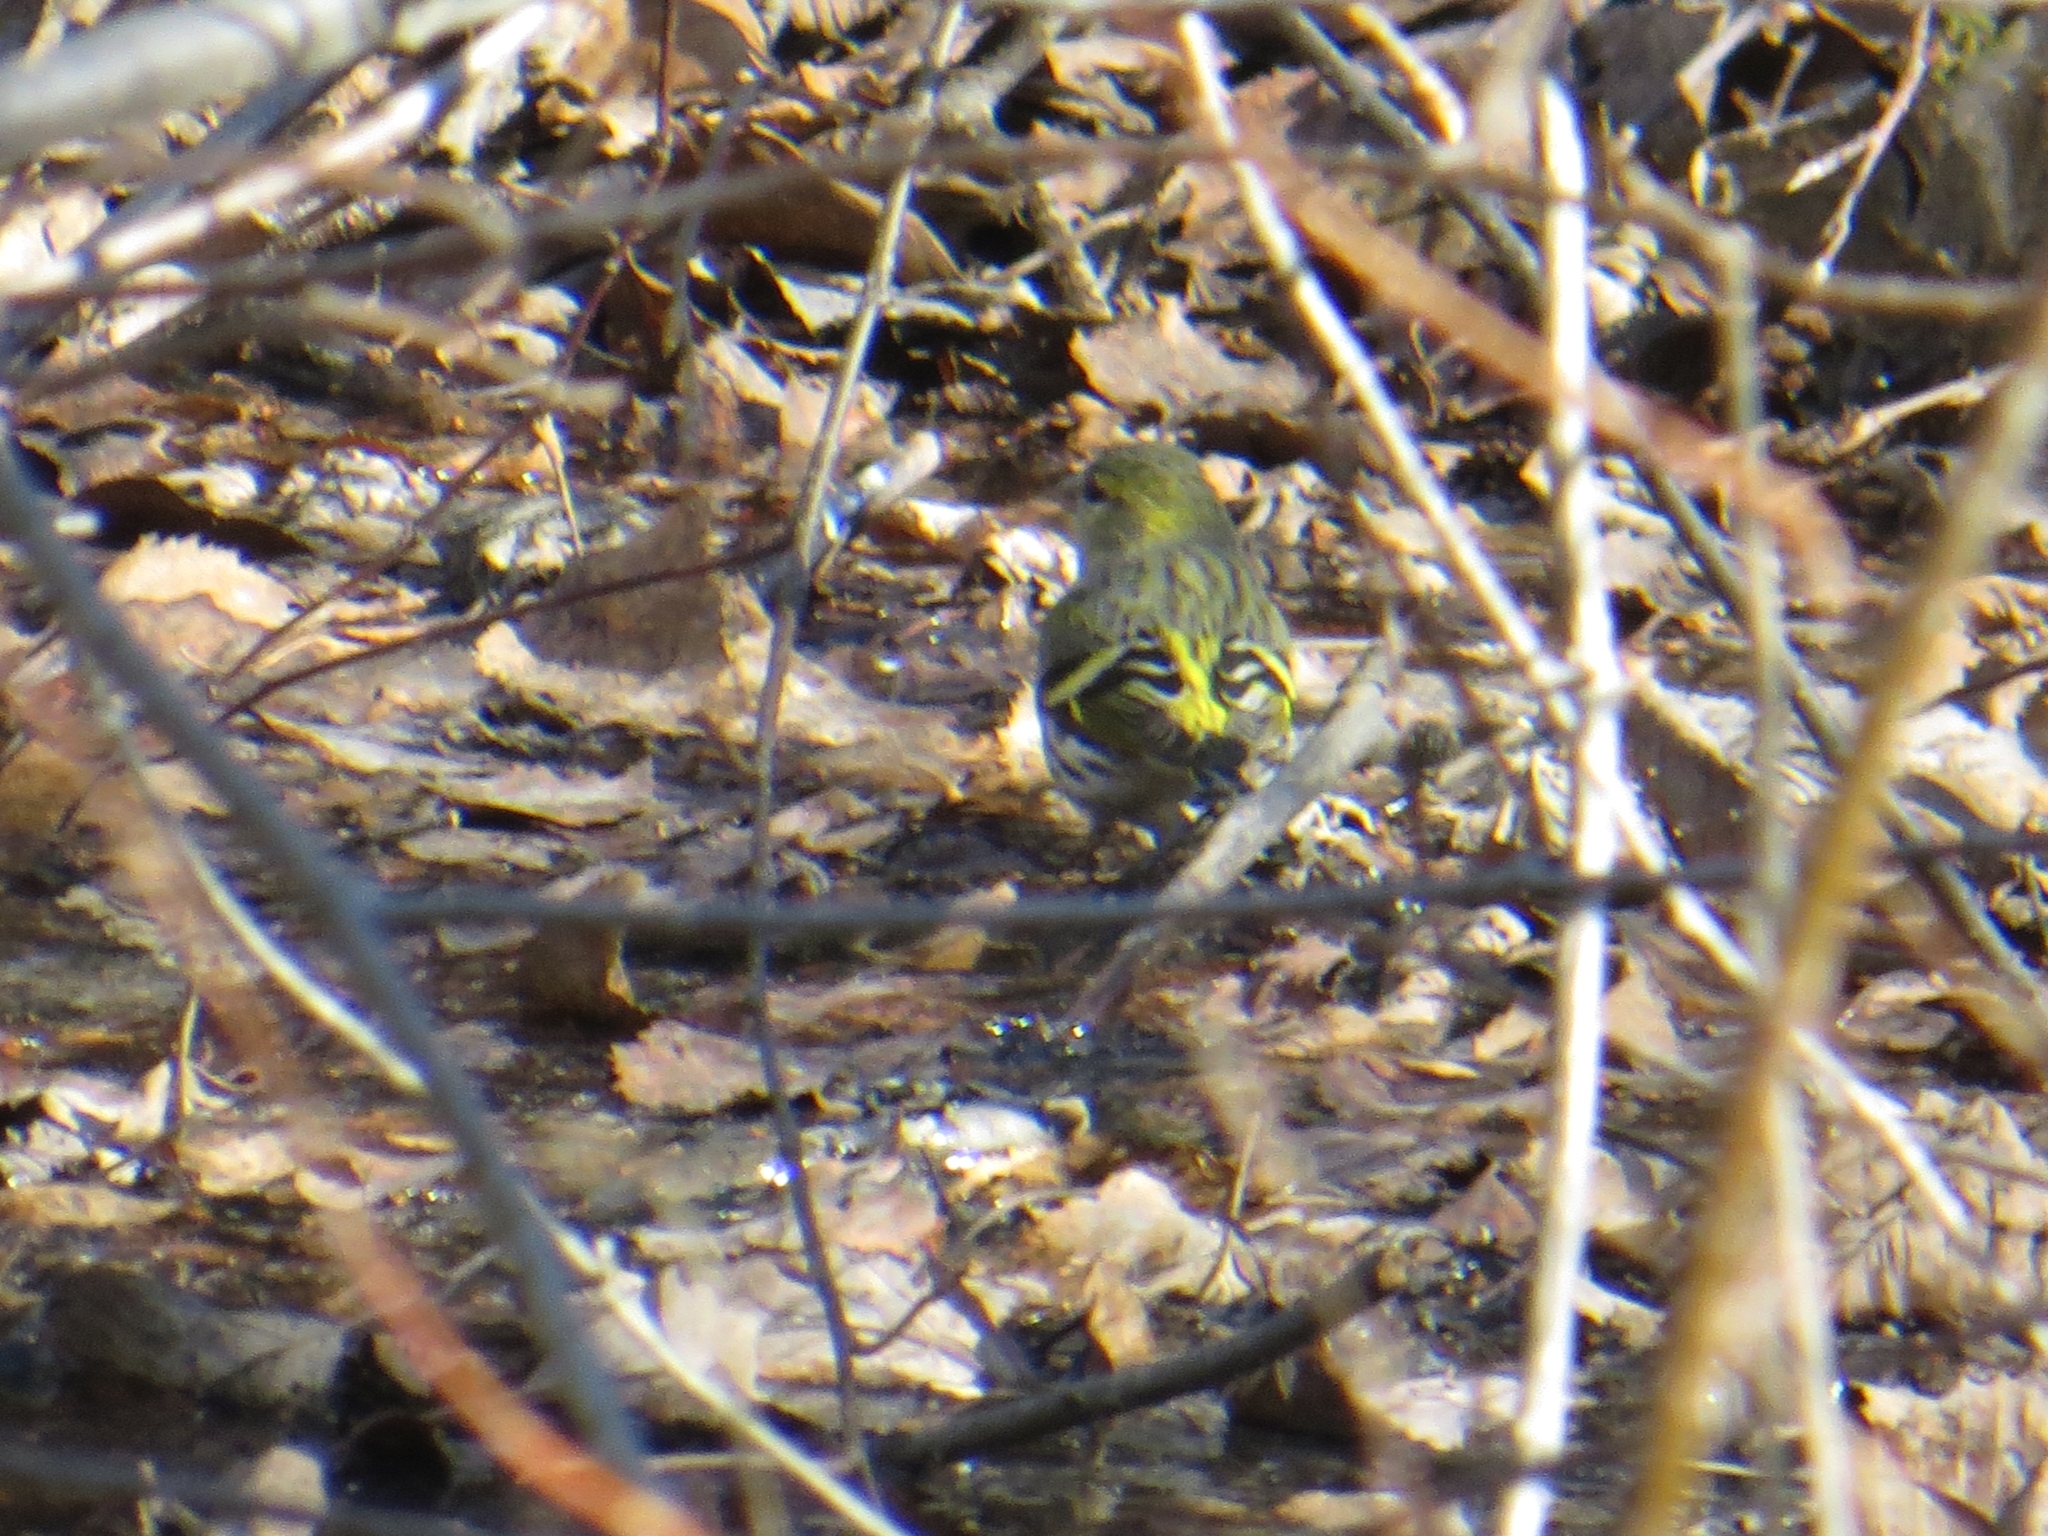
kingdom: Animalia
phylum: Chordata
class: Aves
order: Passeriformes
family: Fringillidae
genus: Spinus
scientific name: Spinus spinus
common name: Eurasian siskin
